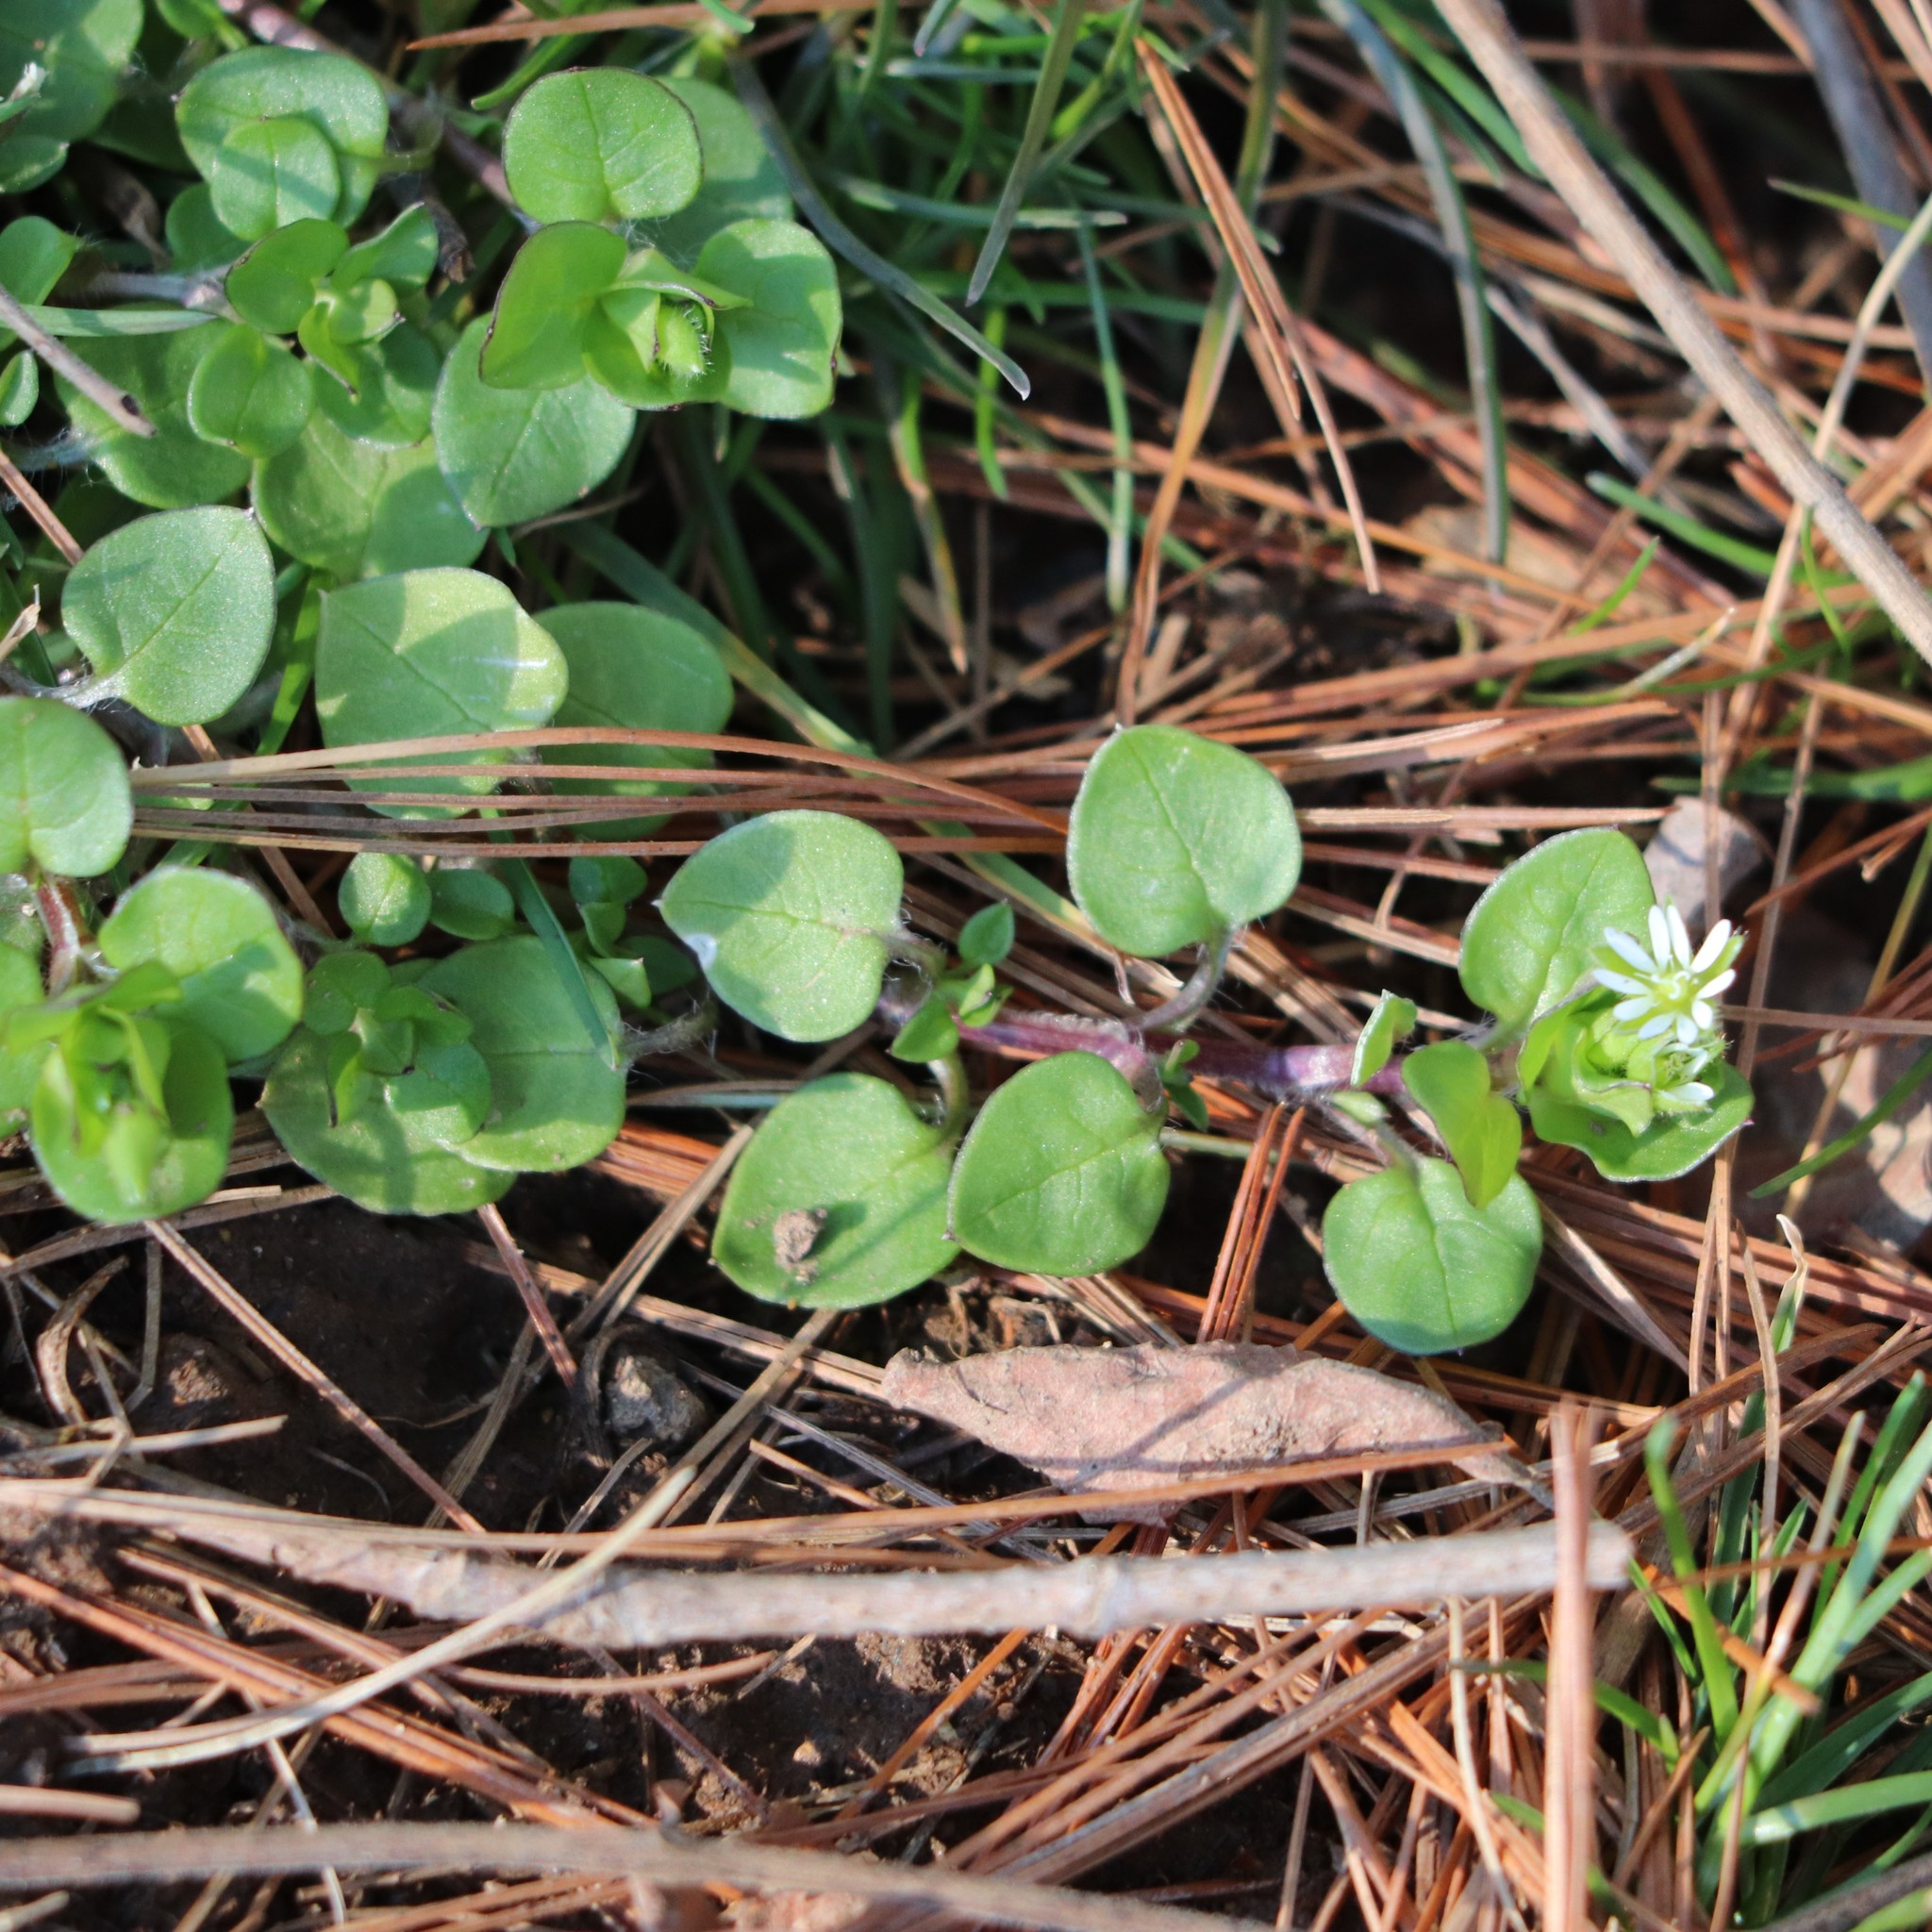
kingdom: Plantae
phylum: Tracheophyta
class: Magnoliopsida
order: Caryophyllales
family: Caryophyllaceae
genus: Stellaria
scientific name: Stellaria media
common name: Common chickweed
